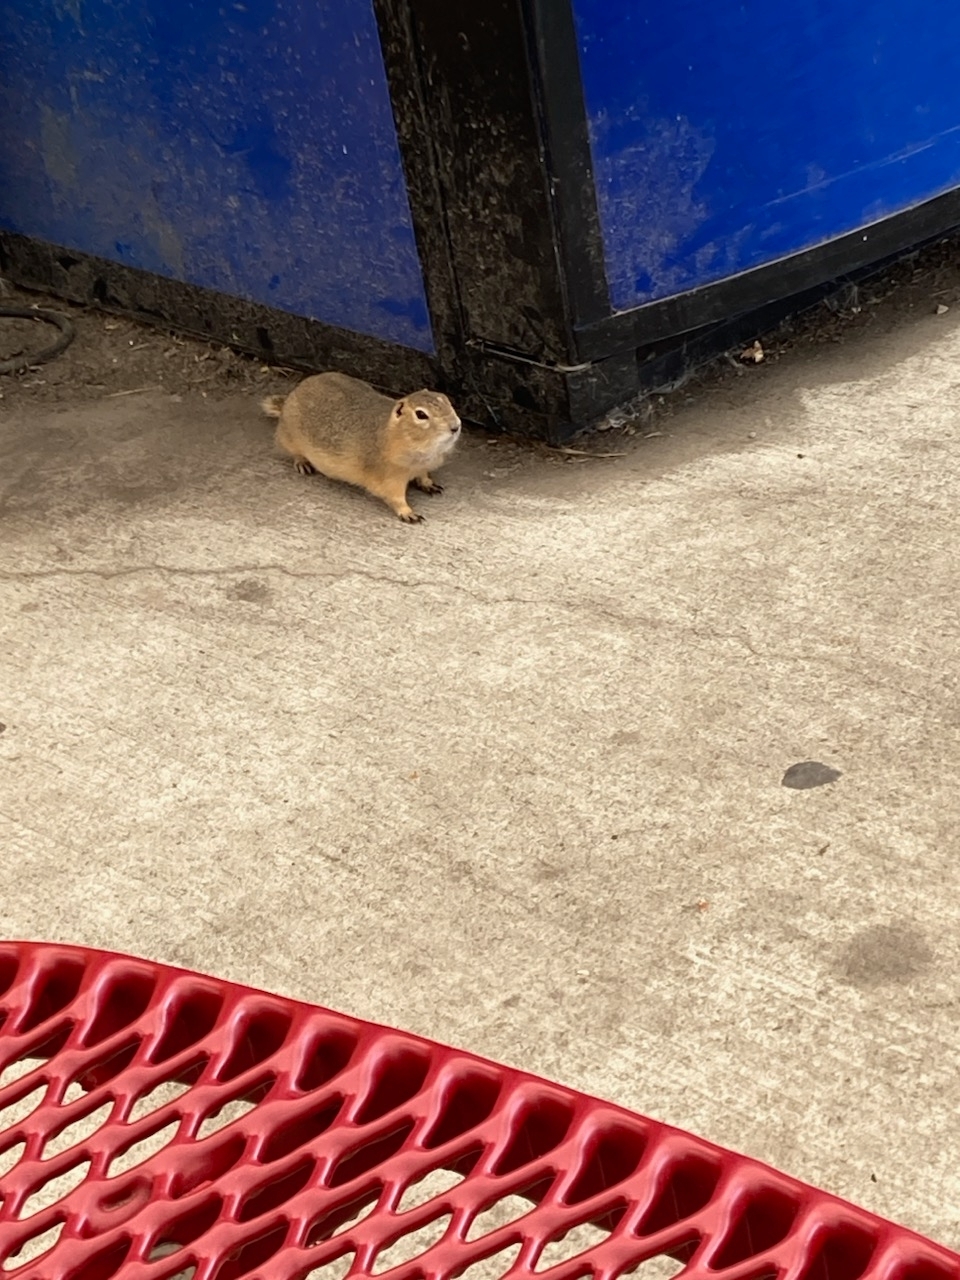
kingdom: Animalia
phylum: Chordata
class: Mammalia
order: Rodentia
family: Sciuridae
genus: Urocitellus
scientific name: Urocitellus richardsonii
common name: Richardson's ground squirrel
